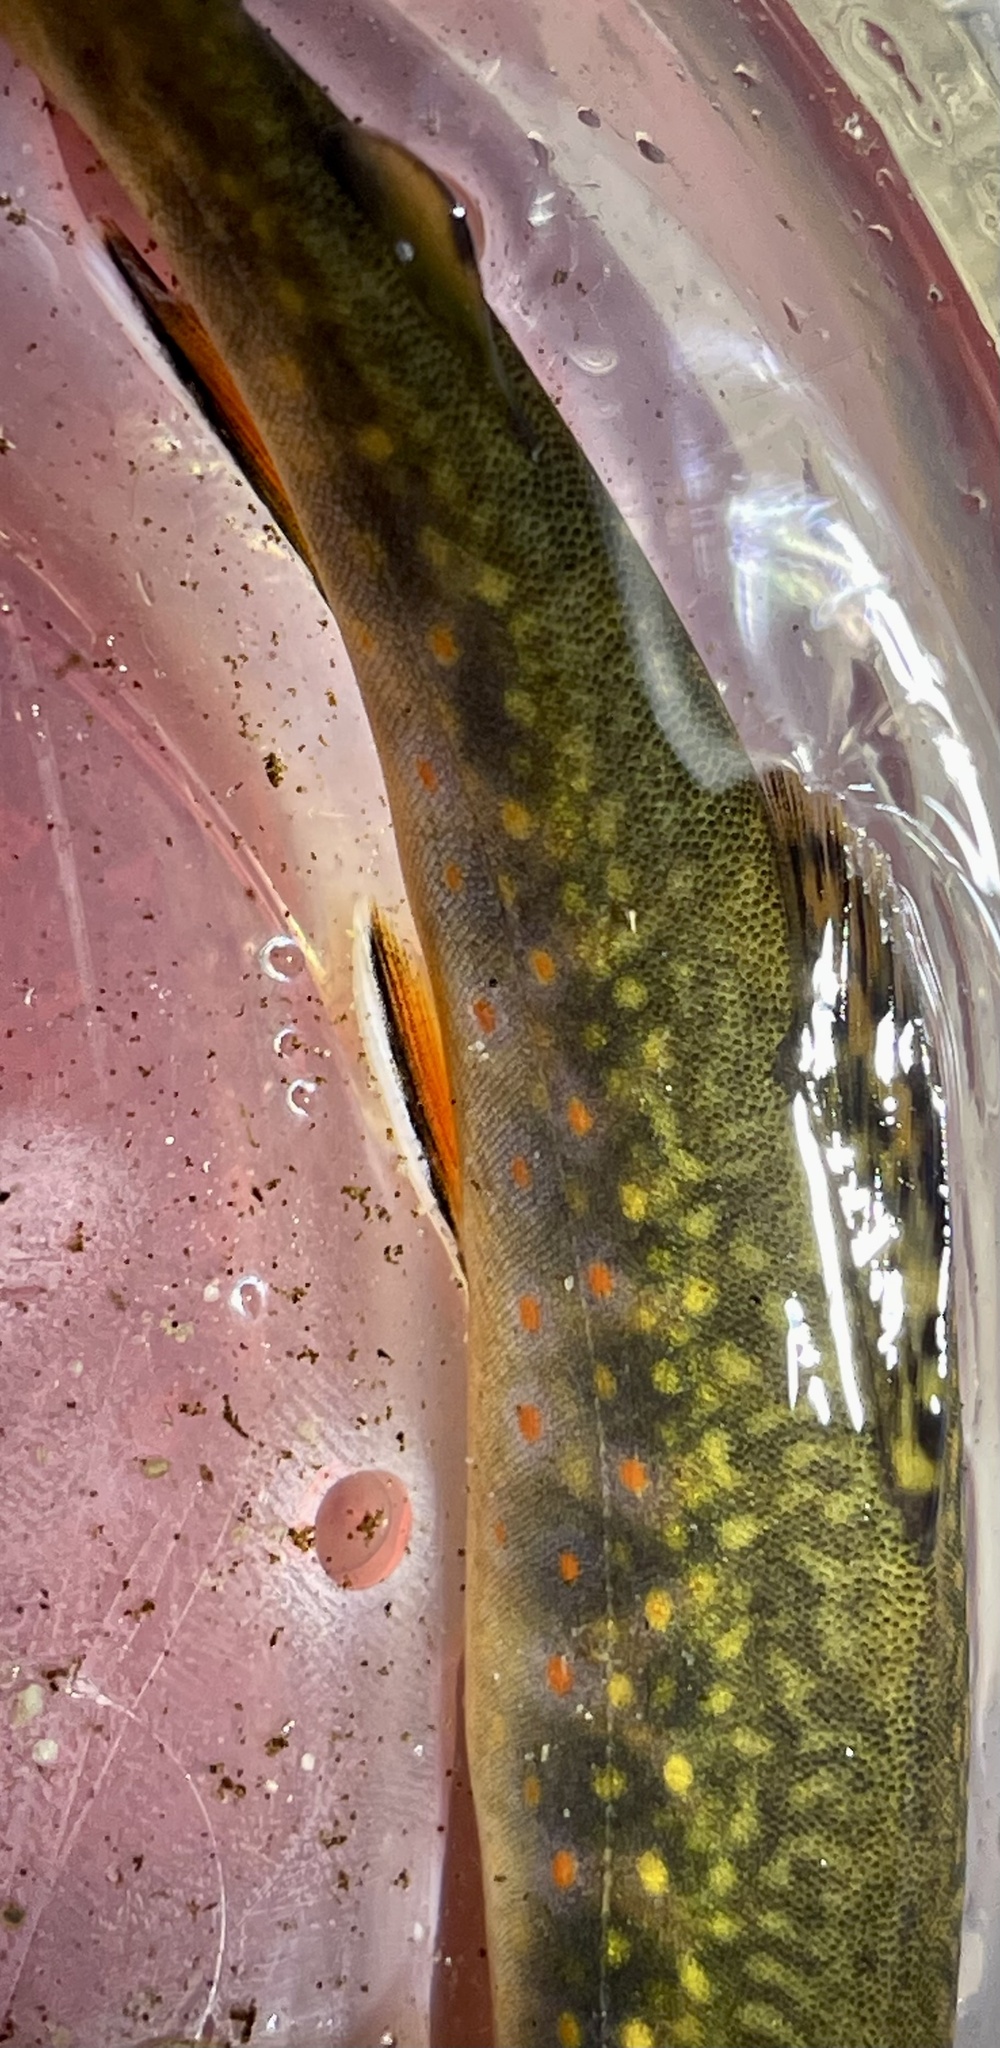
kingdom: Animalia
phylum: Chordata
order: Salmoniformes
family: Salmonidae
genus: Salvelinus
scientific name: Salvelinus fontinalis
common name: Brook trout
